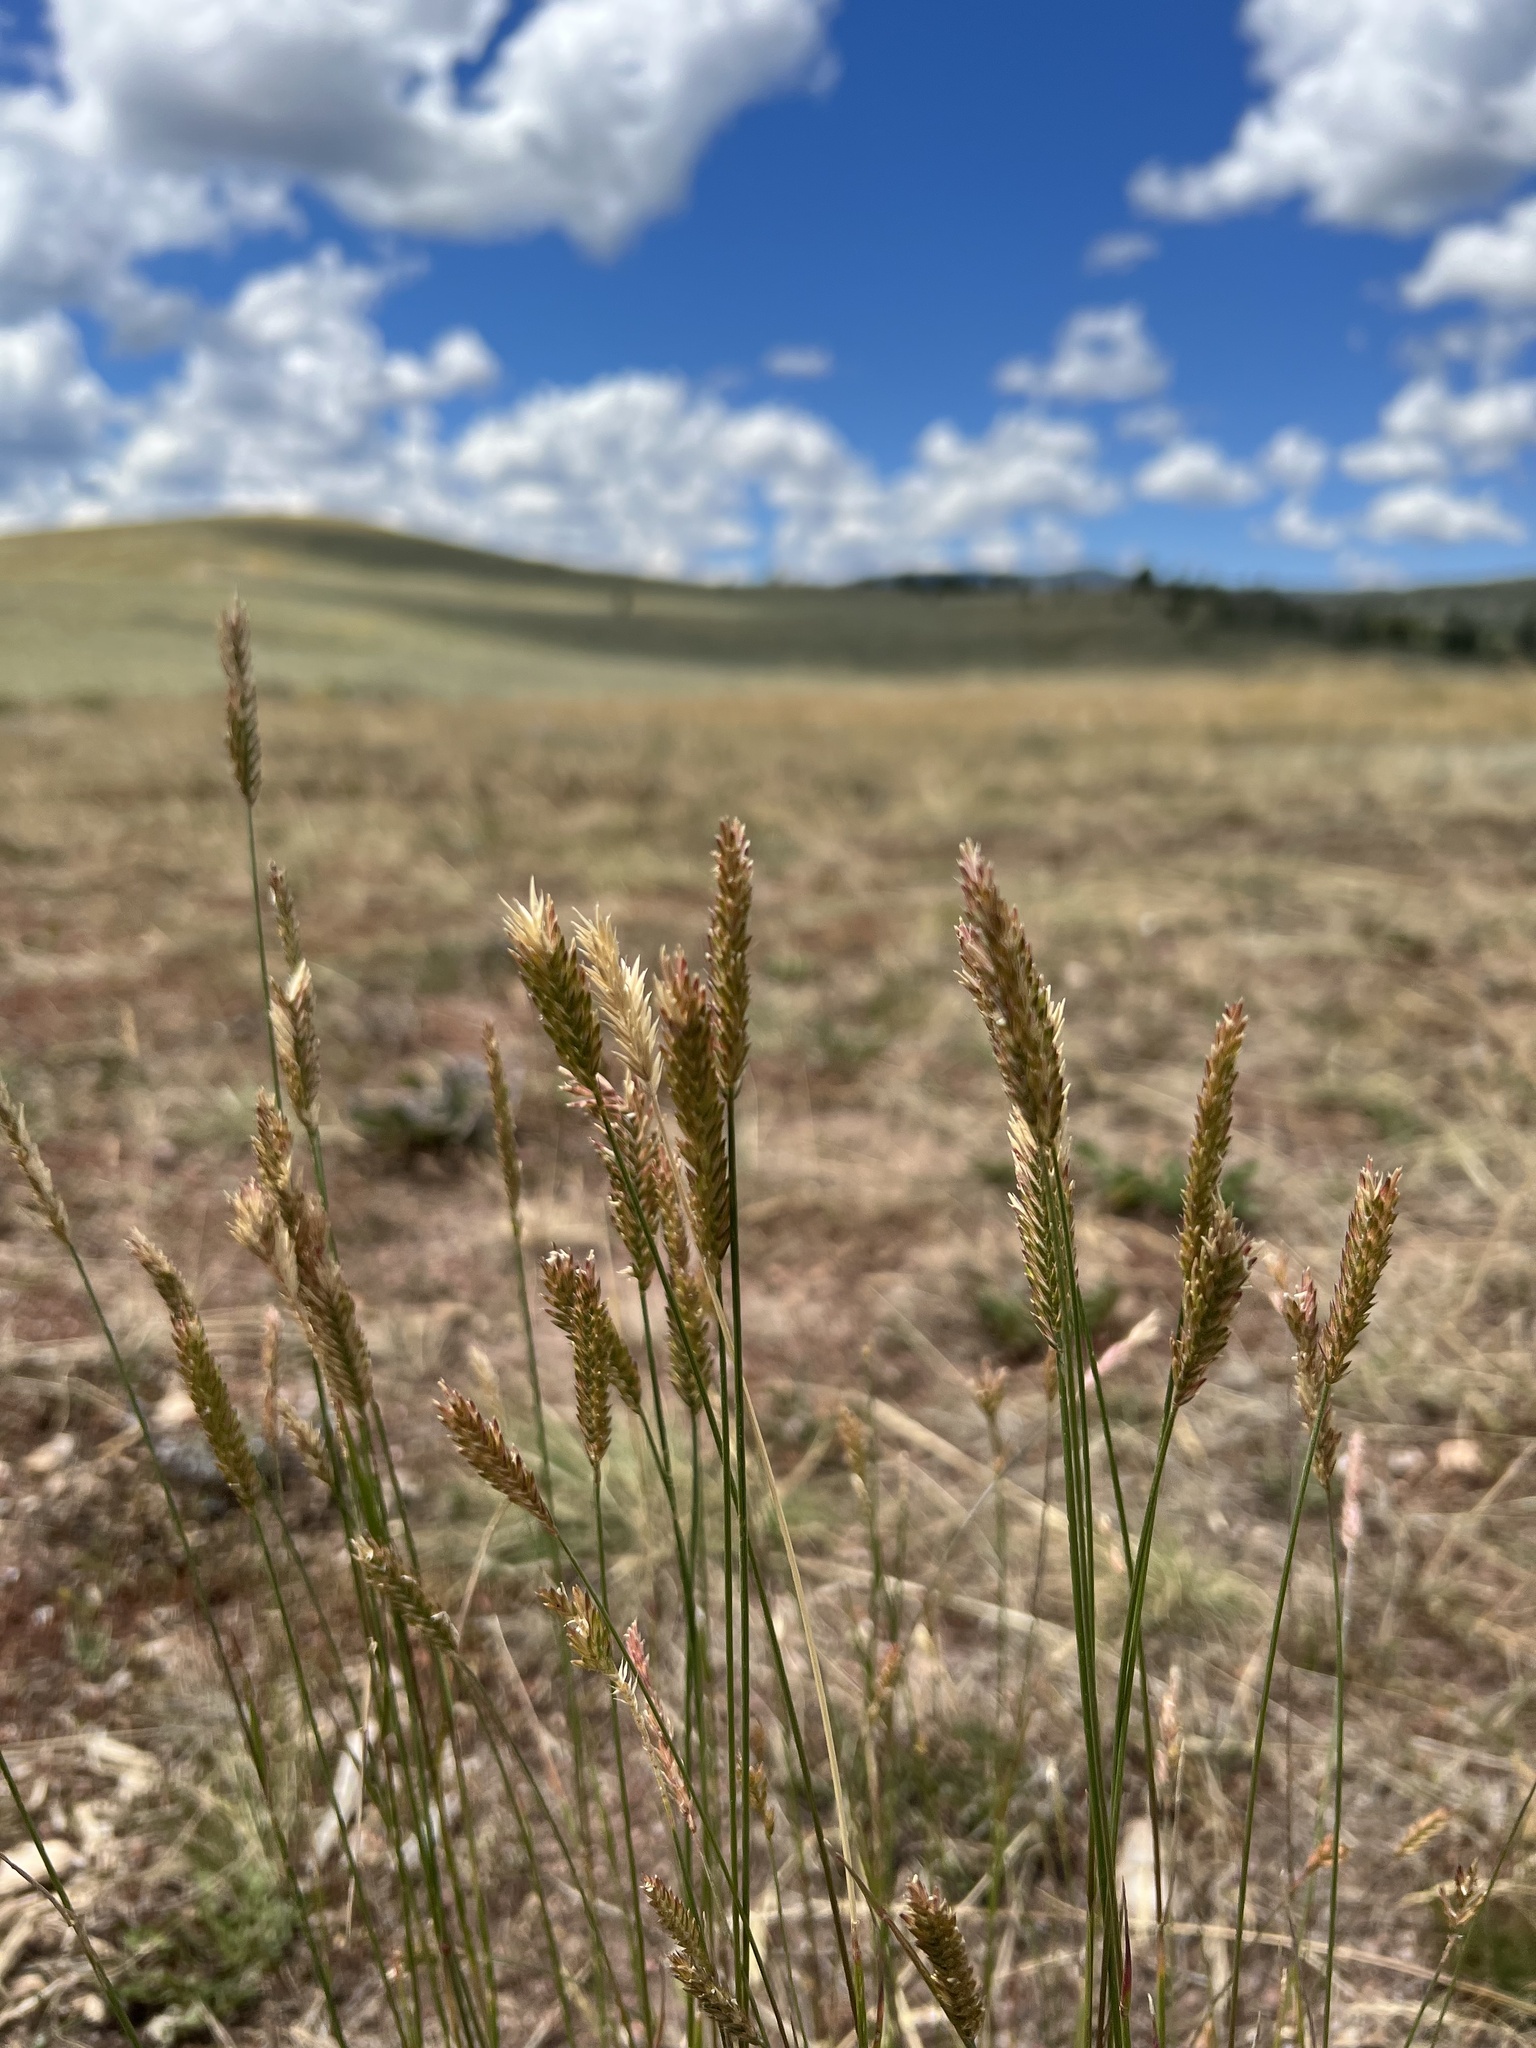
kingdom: Plantae
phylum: Tracheophyta
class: Liliopsida
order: Poales
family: Poaceae
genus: Agropyron
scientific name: Agropyron cristatum
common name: Crested wheatgrass
